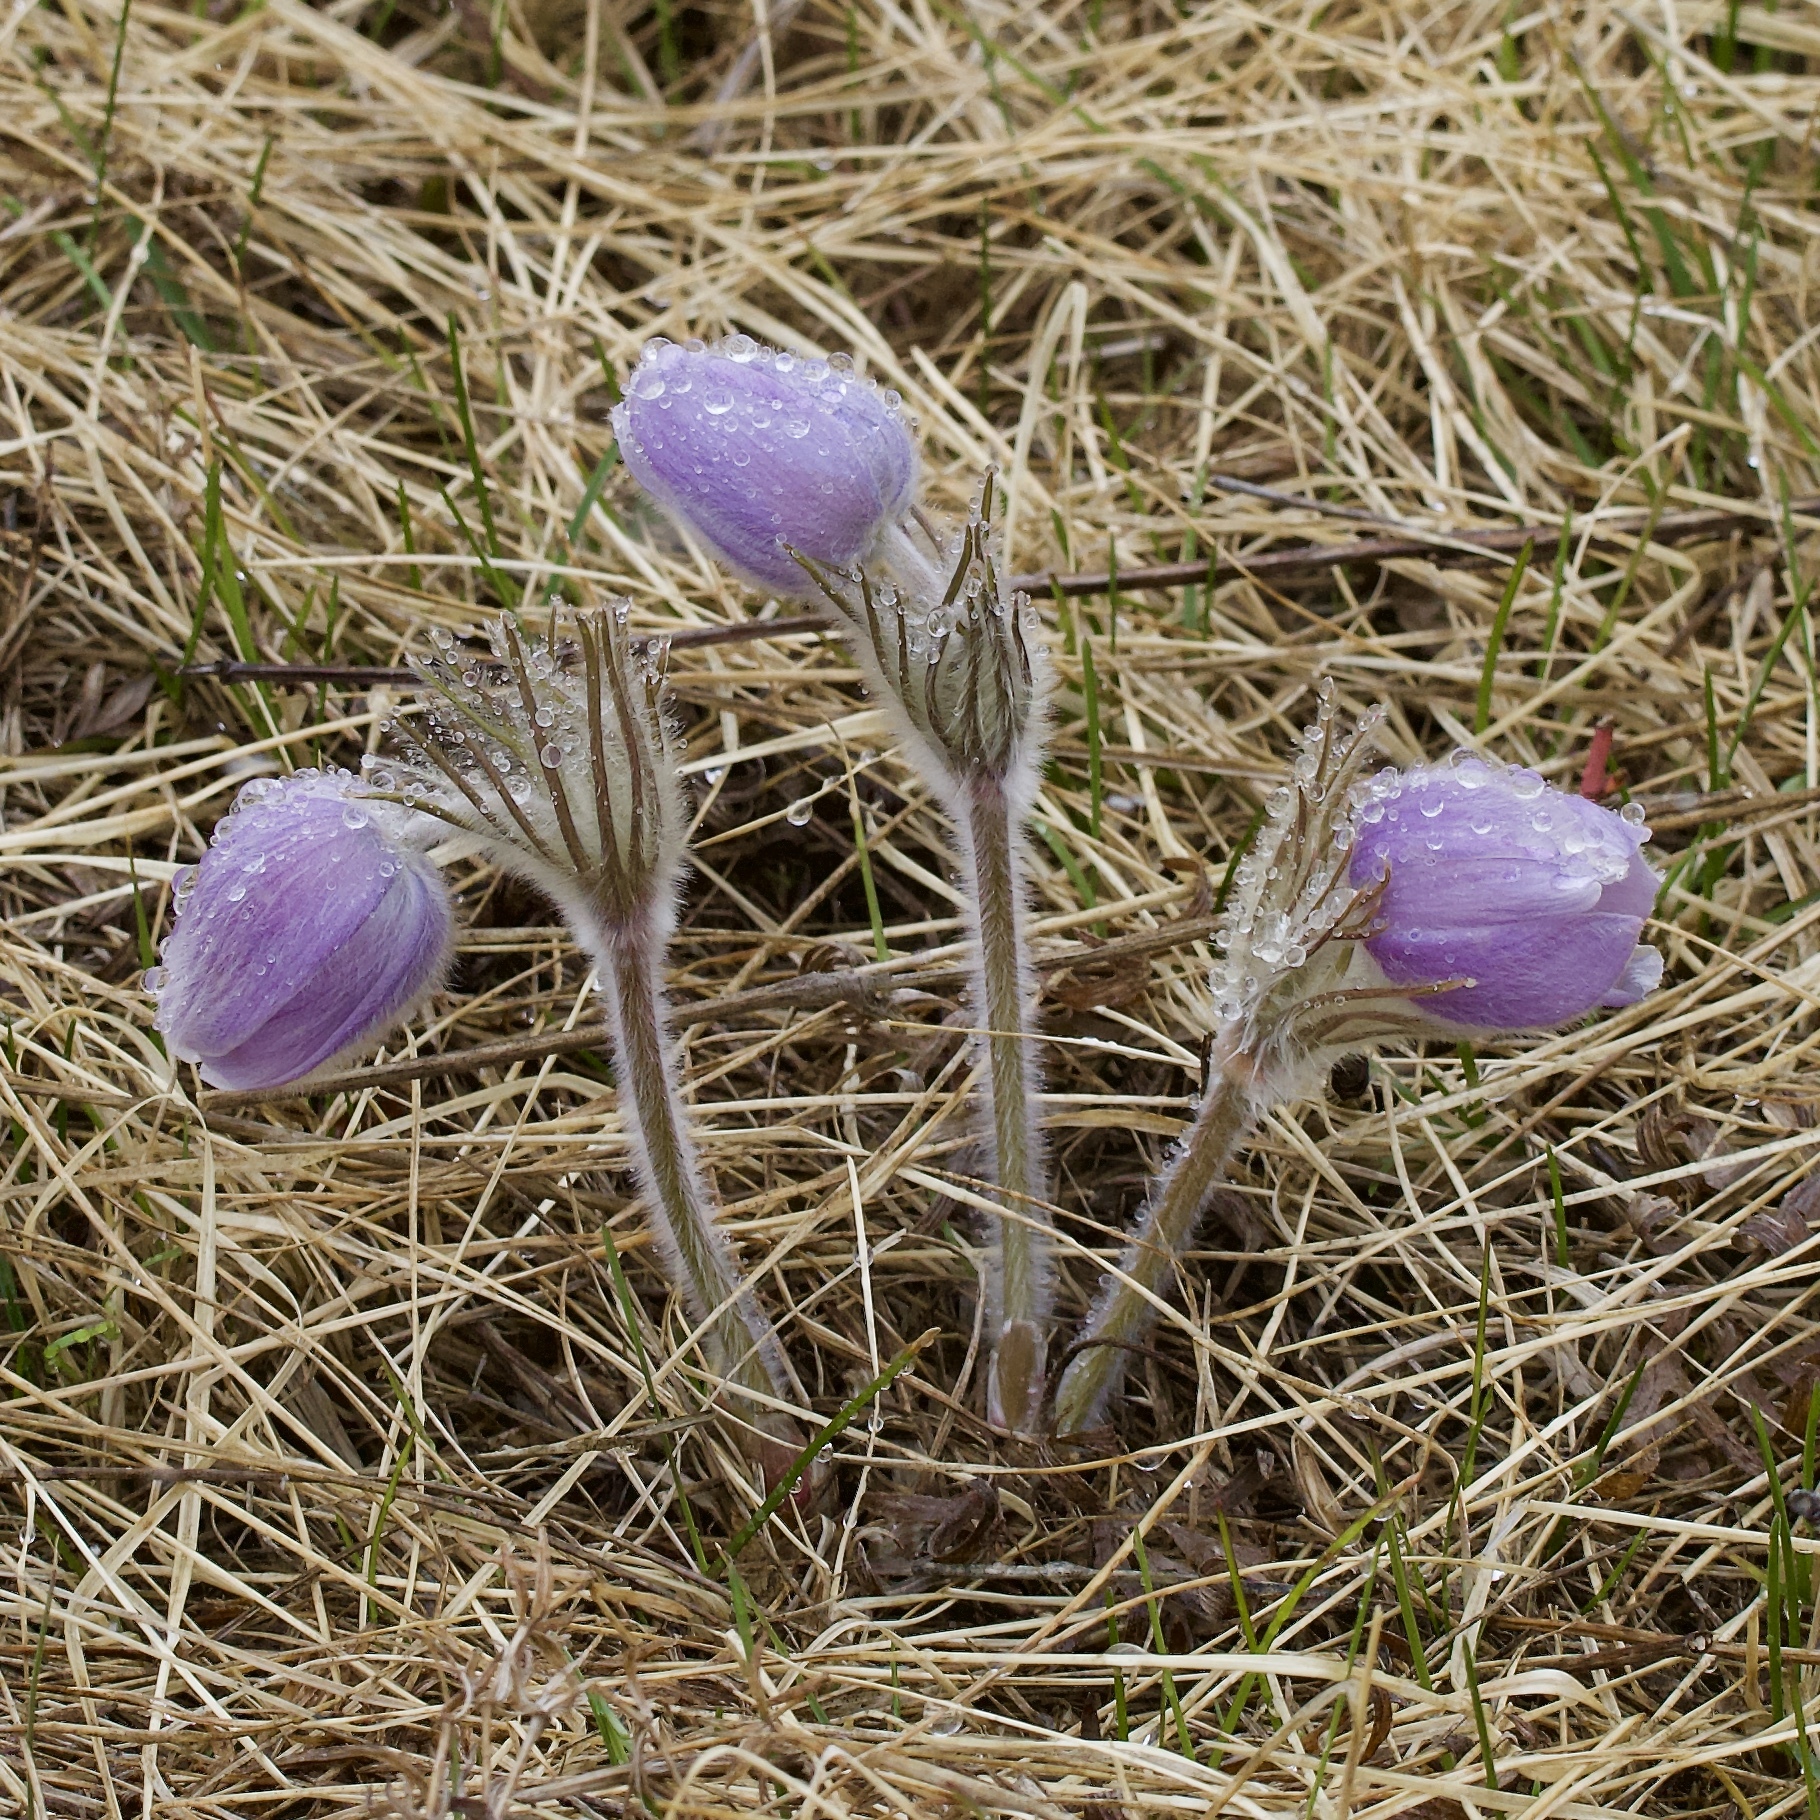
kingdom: Plantae
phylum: Tracheophyta
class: Magnoliopsida
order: Ranunculales
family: Ranunculaceae
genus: Pulsatilla
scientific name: Pulsatilla nuttalliana
